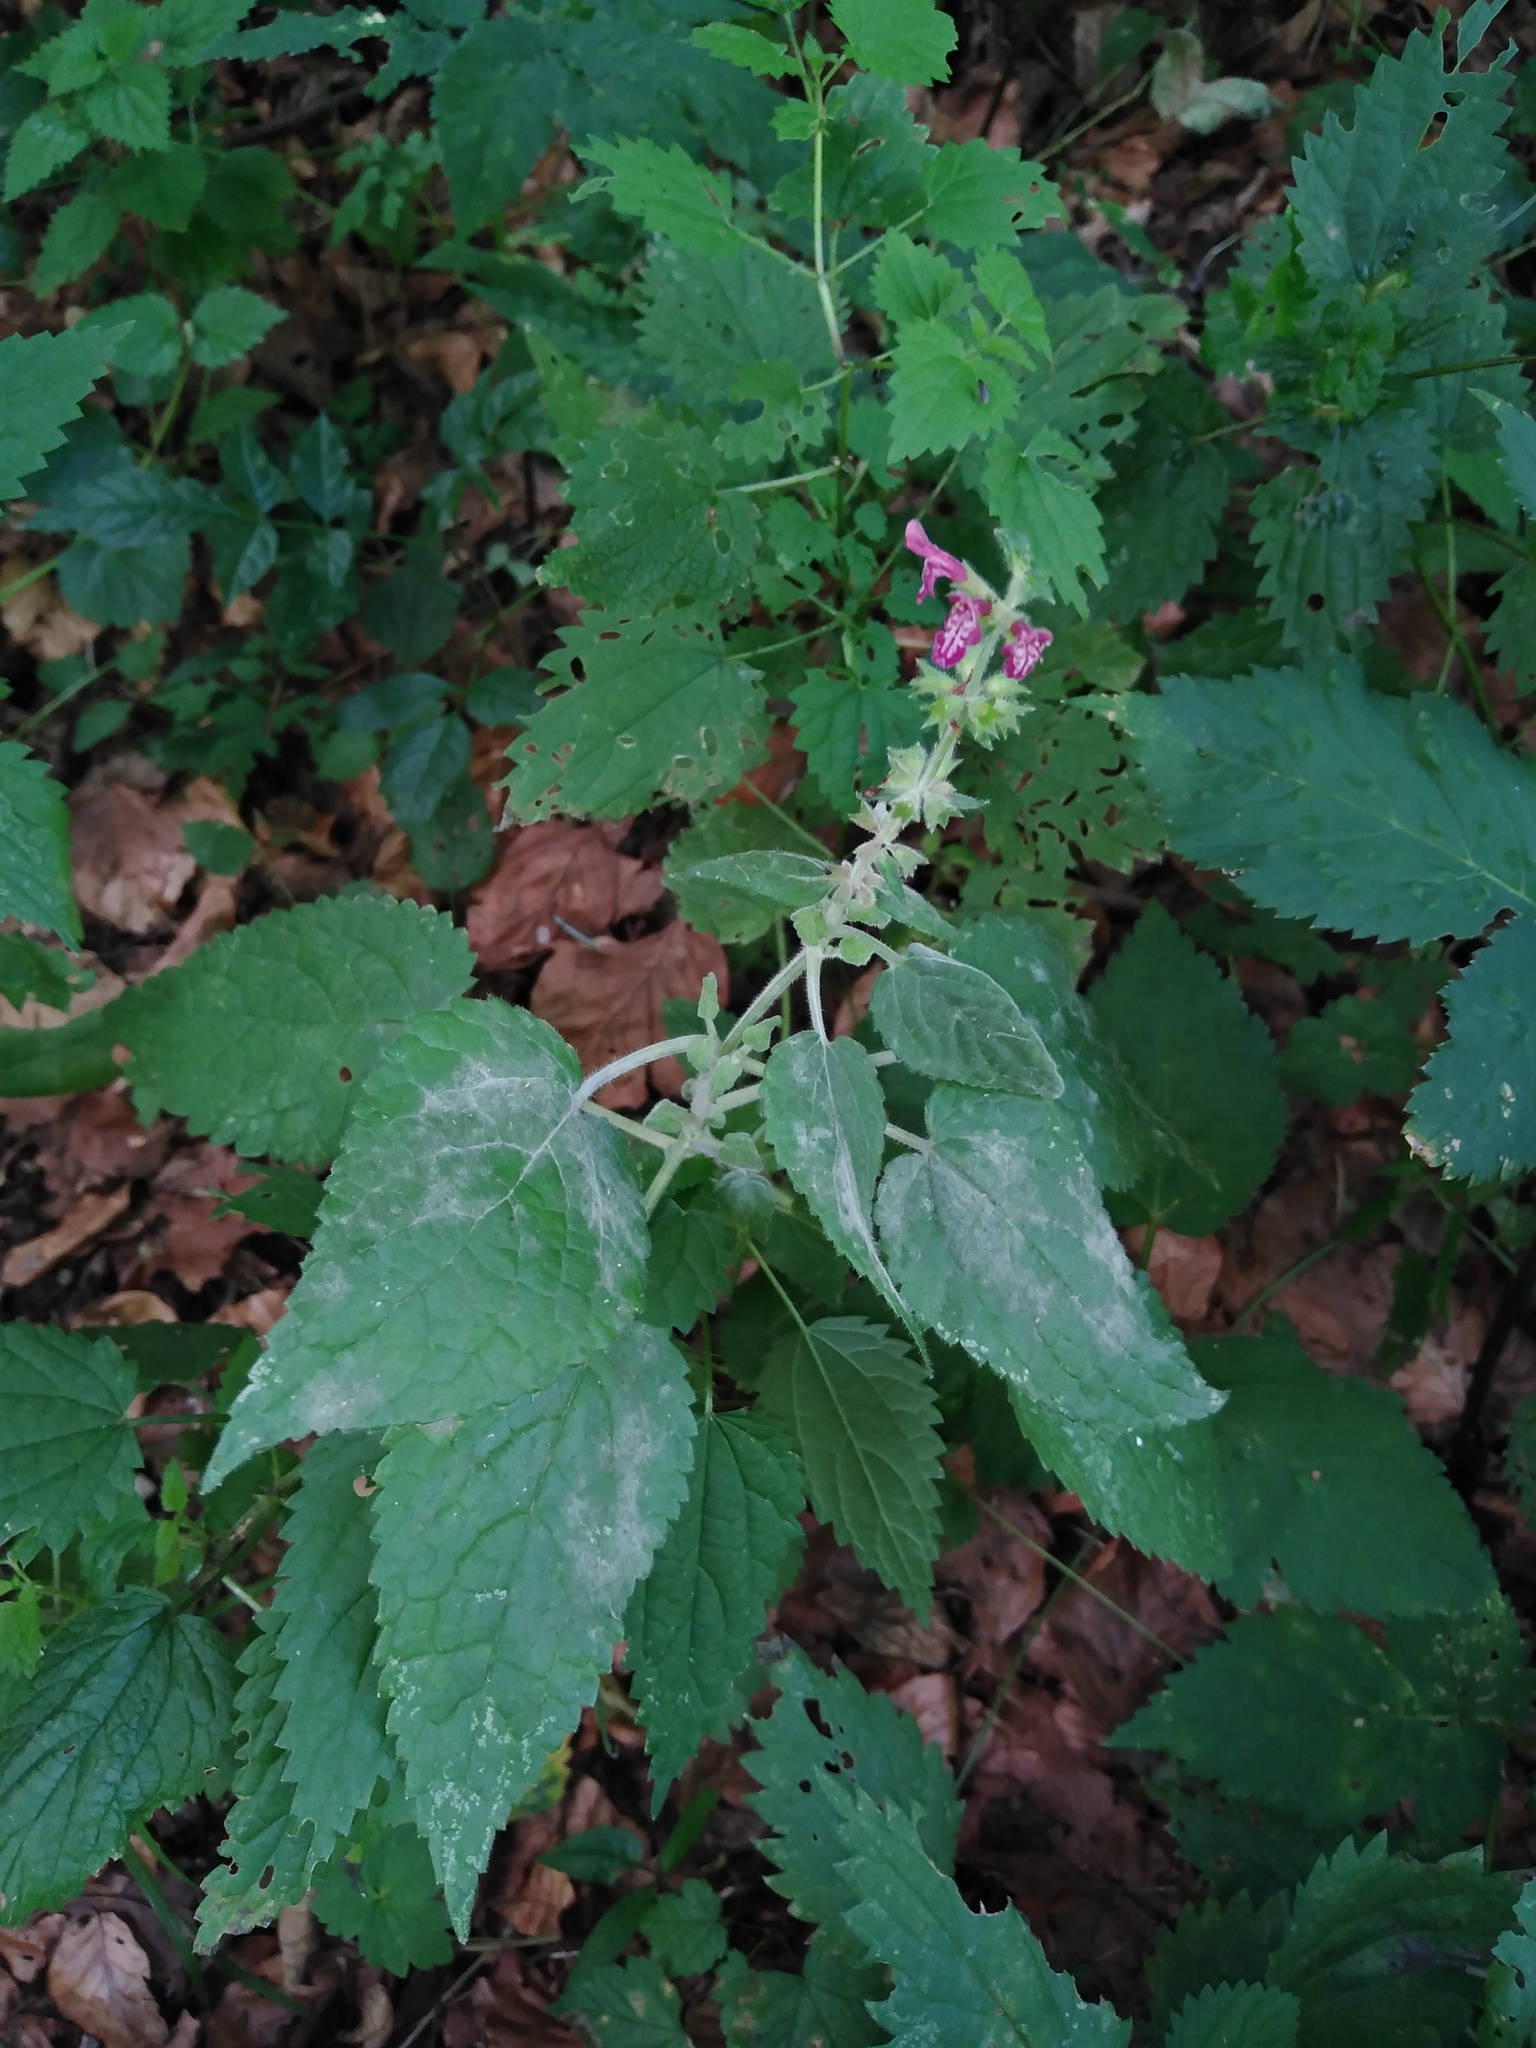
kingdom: Plantae
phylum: Tracheophyta
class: Magnoliopsida
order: Lamiales
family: Lamiaceae
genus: Stachys
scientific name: Stachys sylvatica
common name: Hedge woundwort
